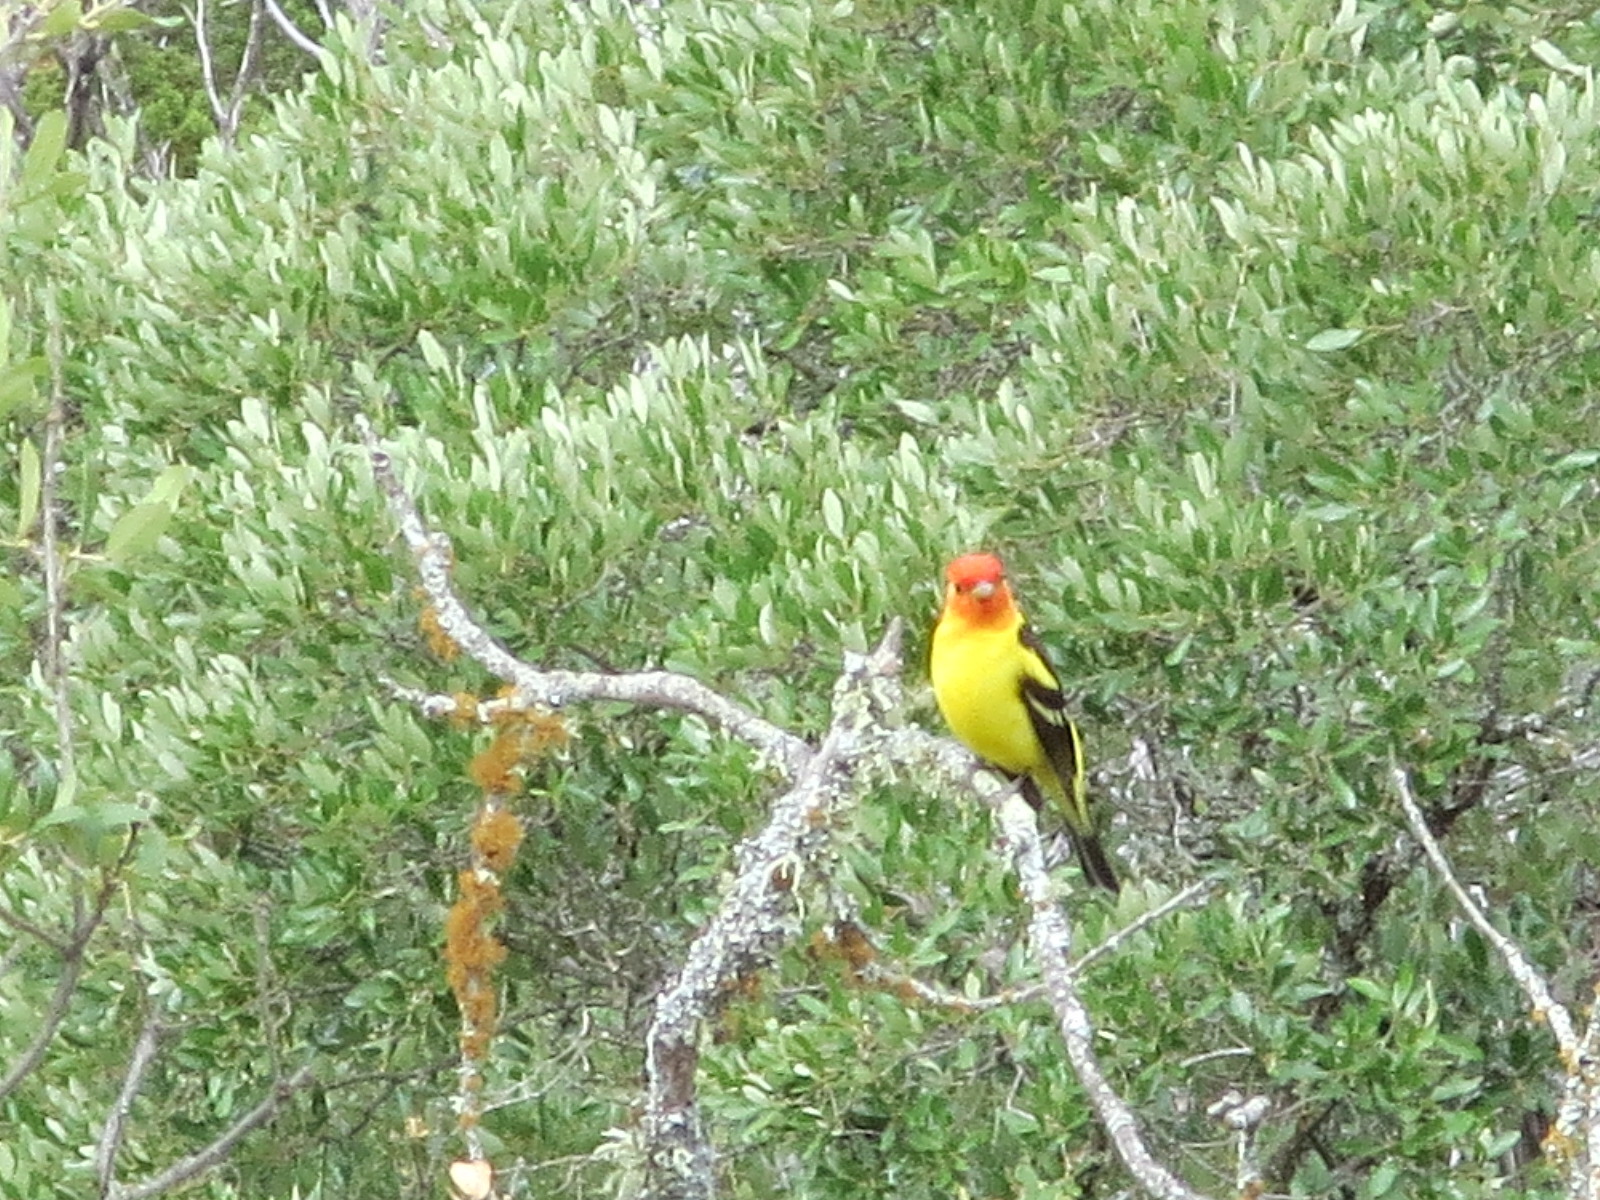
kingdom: Animalia
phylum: Chordata
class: Aves
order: Passeriformes
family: Cardinalidae
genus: Piranga
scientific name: Piranga ludoviciana
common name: Western tanager
